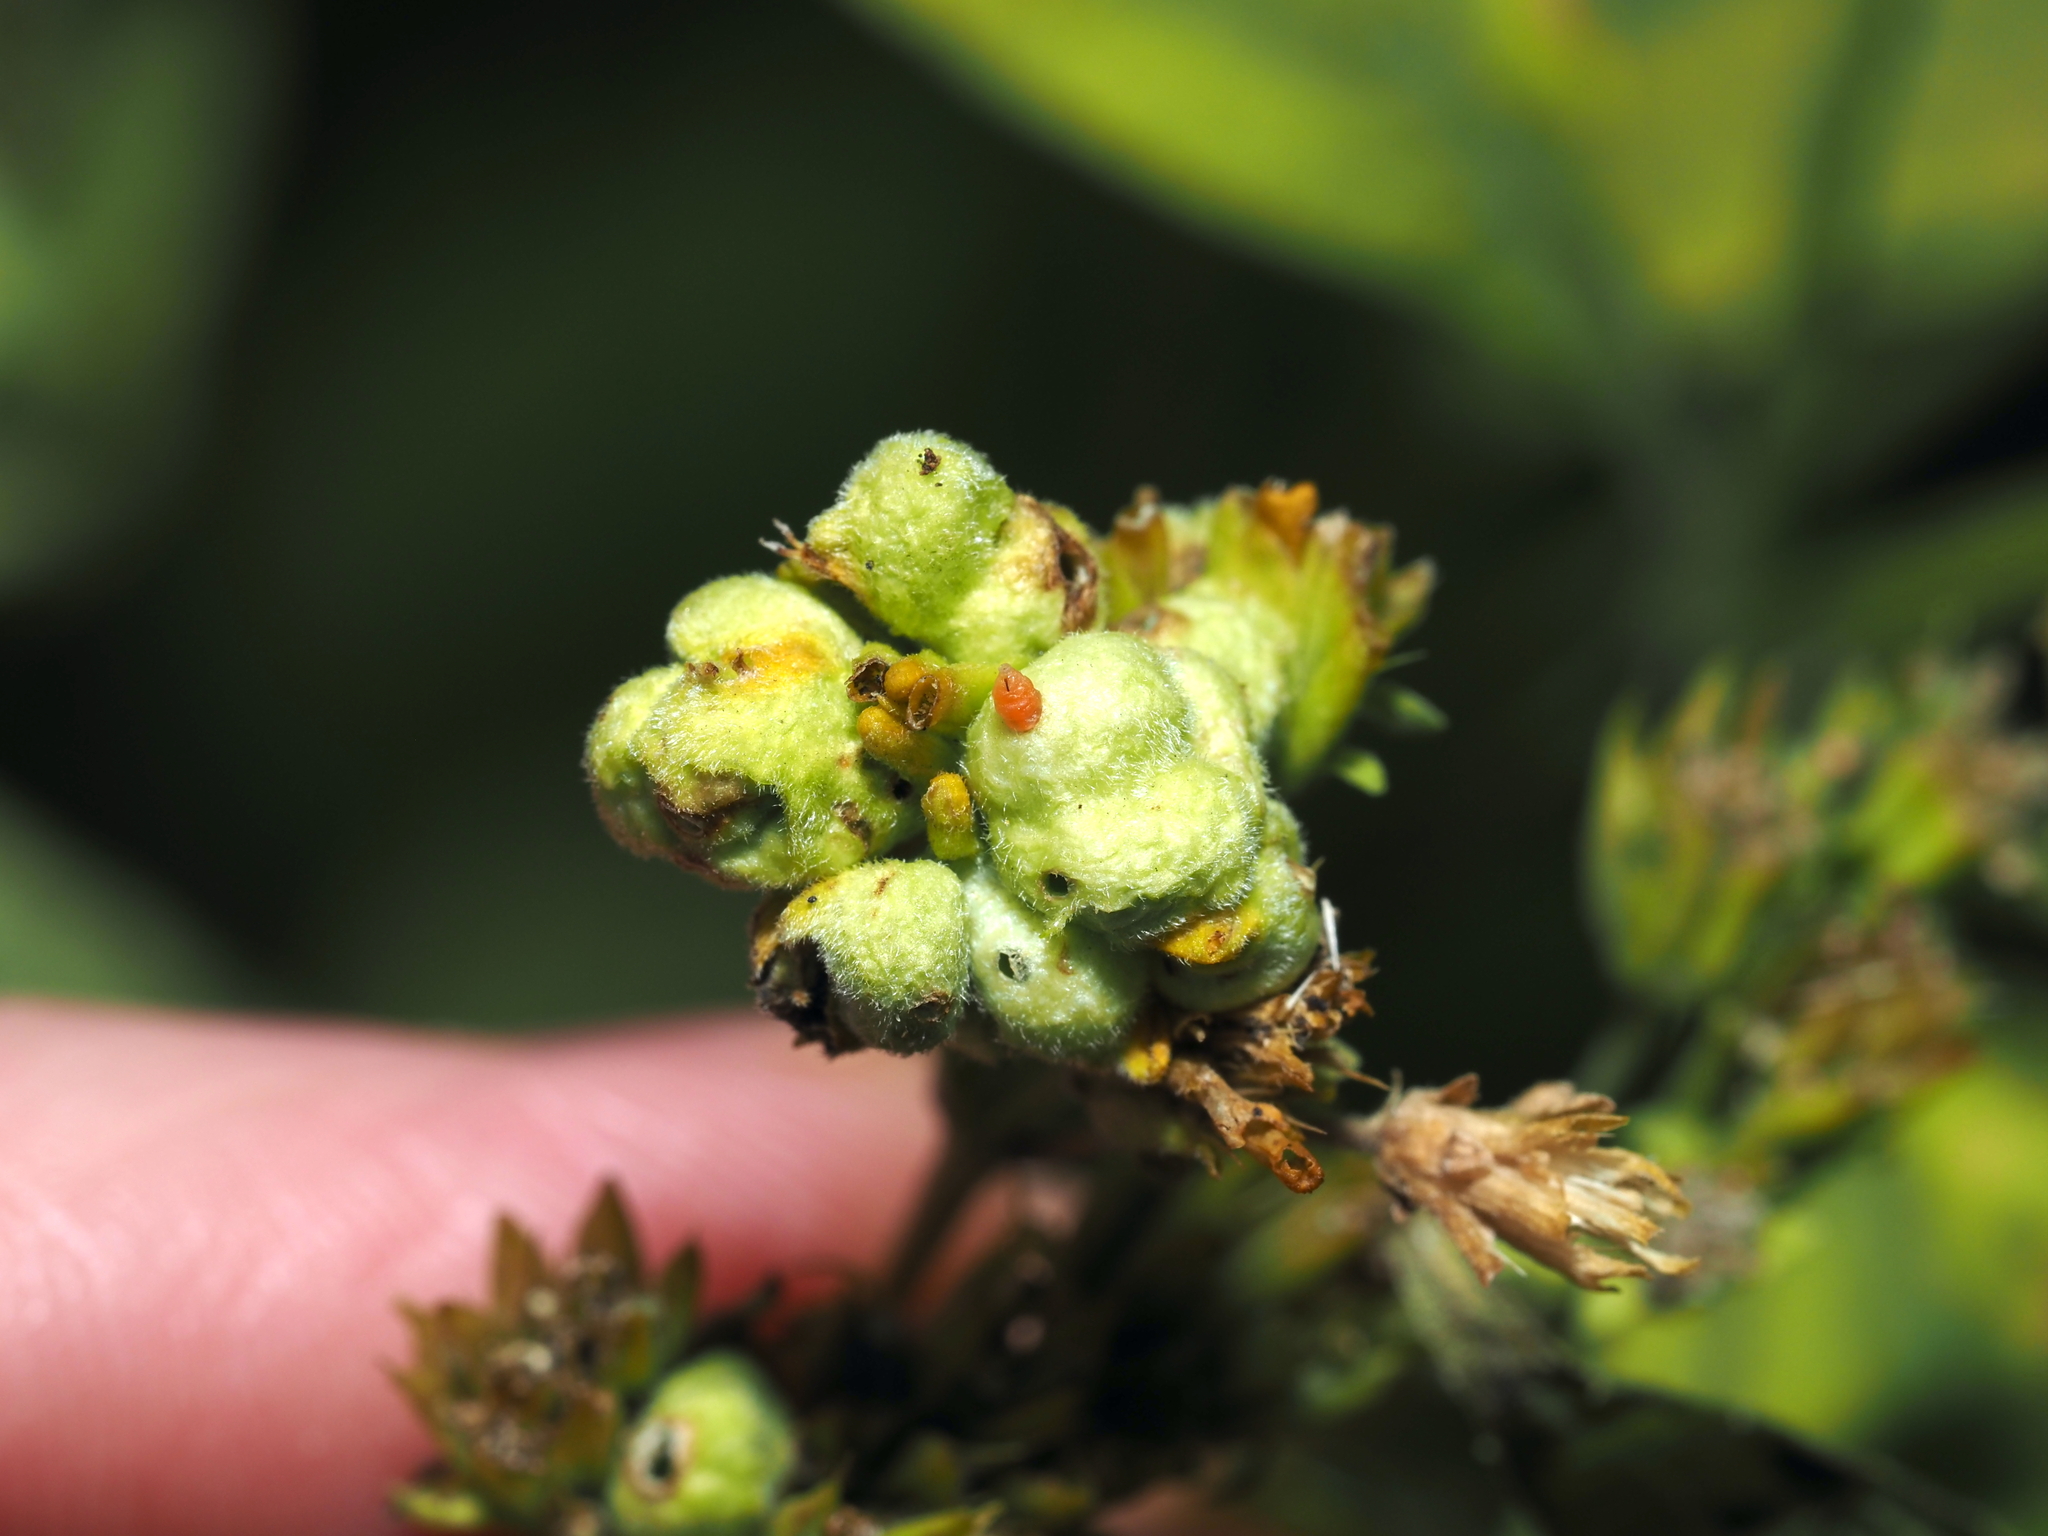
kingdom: Animalia
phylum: Arthropoda
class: Insecta
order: Diptera
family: Cecidomyiidae
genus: Schizomyia
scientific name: Schizomyia
